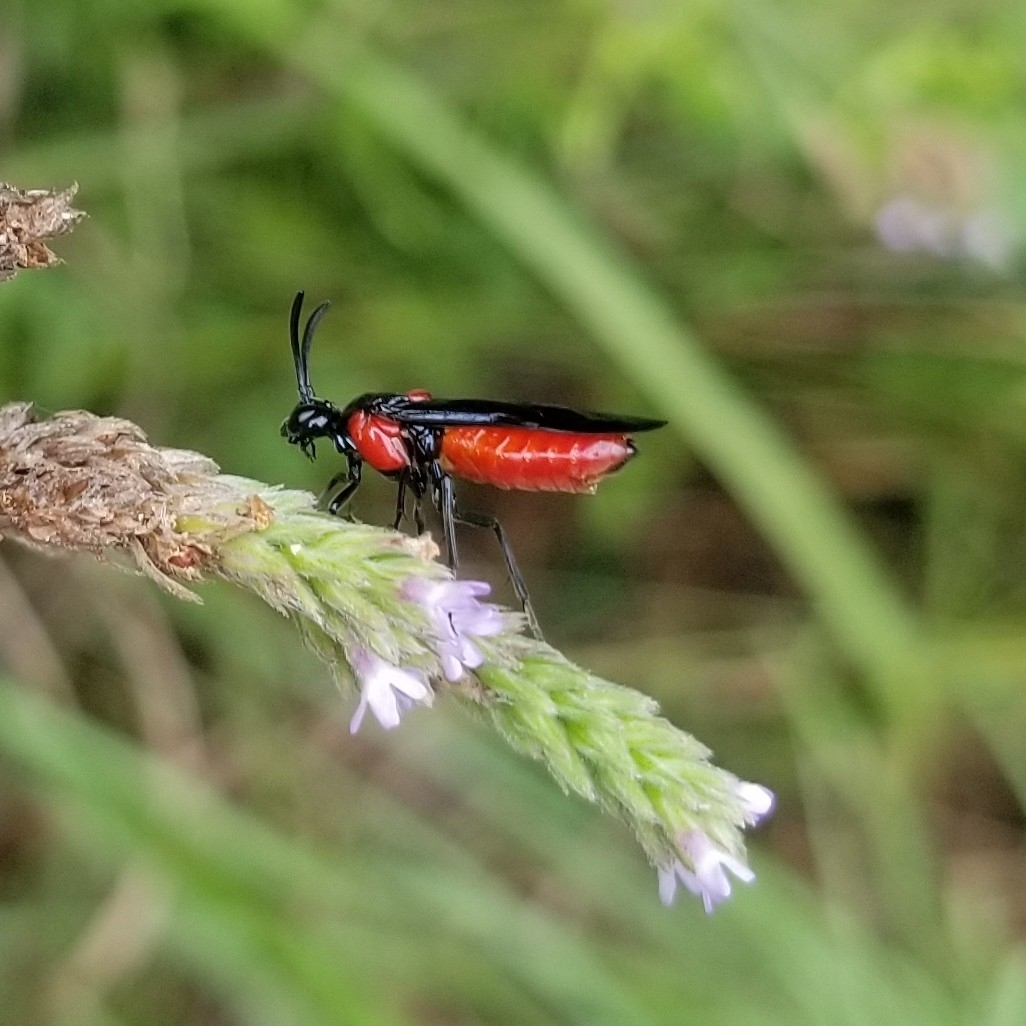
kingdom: Animalia
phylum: Arthropoda
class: Insecta
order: Hymenoptera
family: Argidae
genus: Arge
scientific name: Arge humeralis
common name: Poison ivy sawfly
